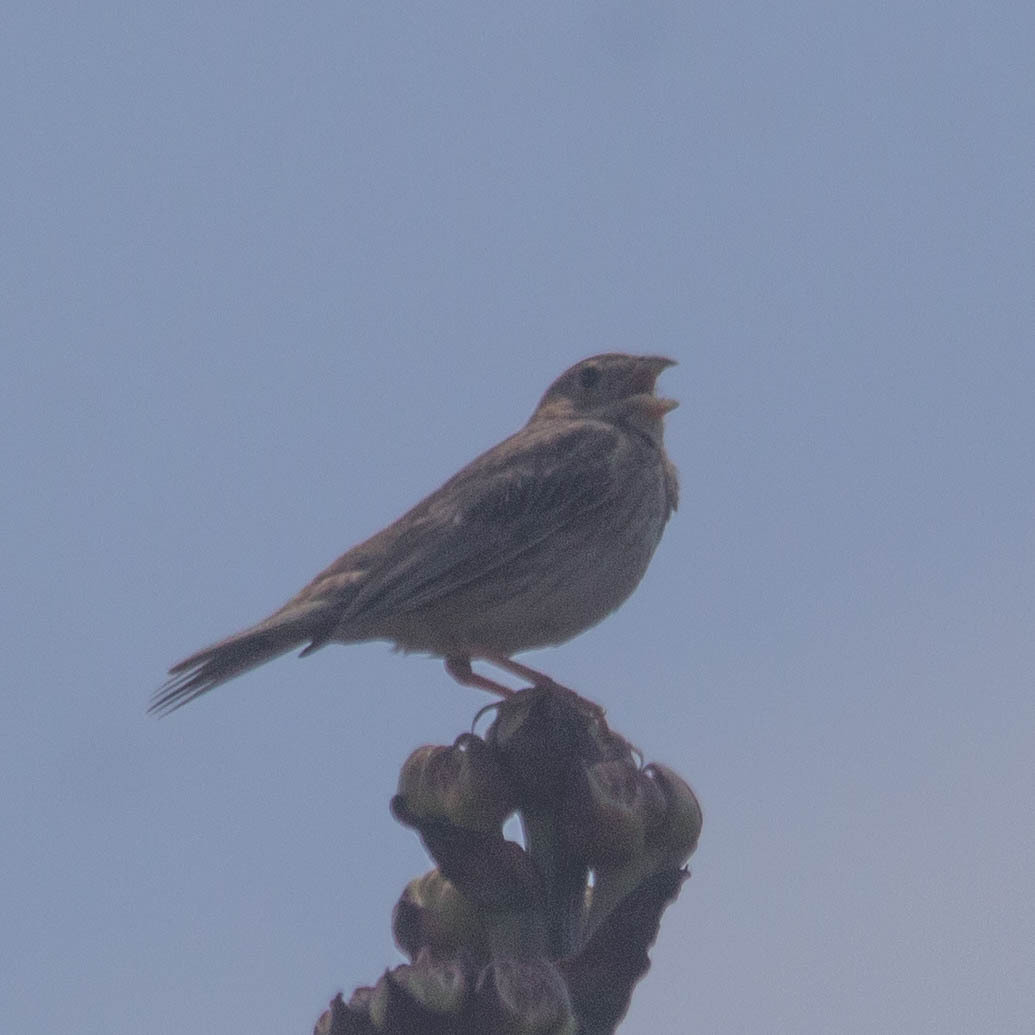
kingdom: Animalia
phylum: Chordata
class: Aves
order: Passeriformes
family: Emberizidae
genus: Emberiza
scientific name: Emberiza calandra
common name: Corn bunting
